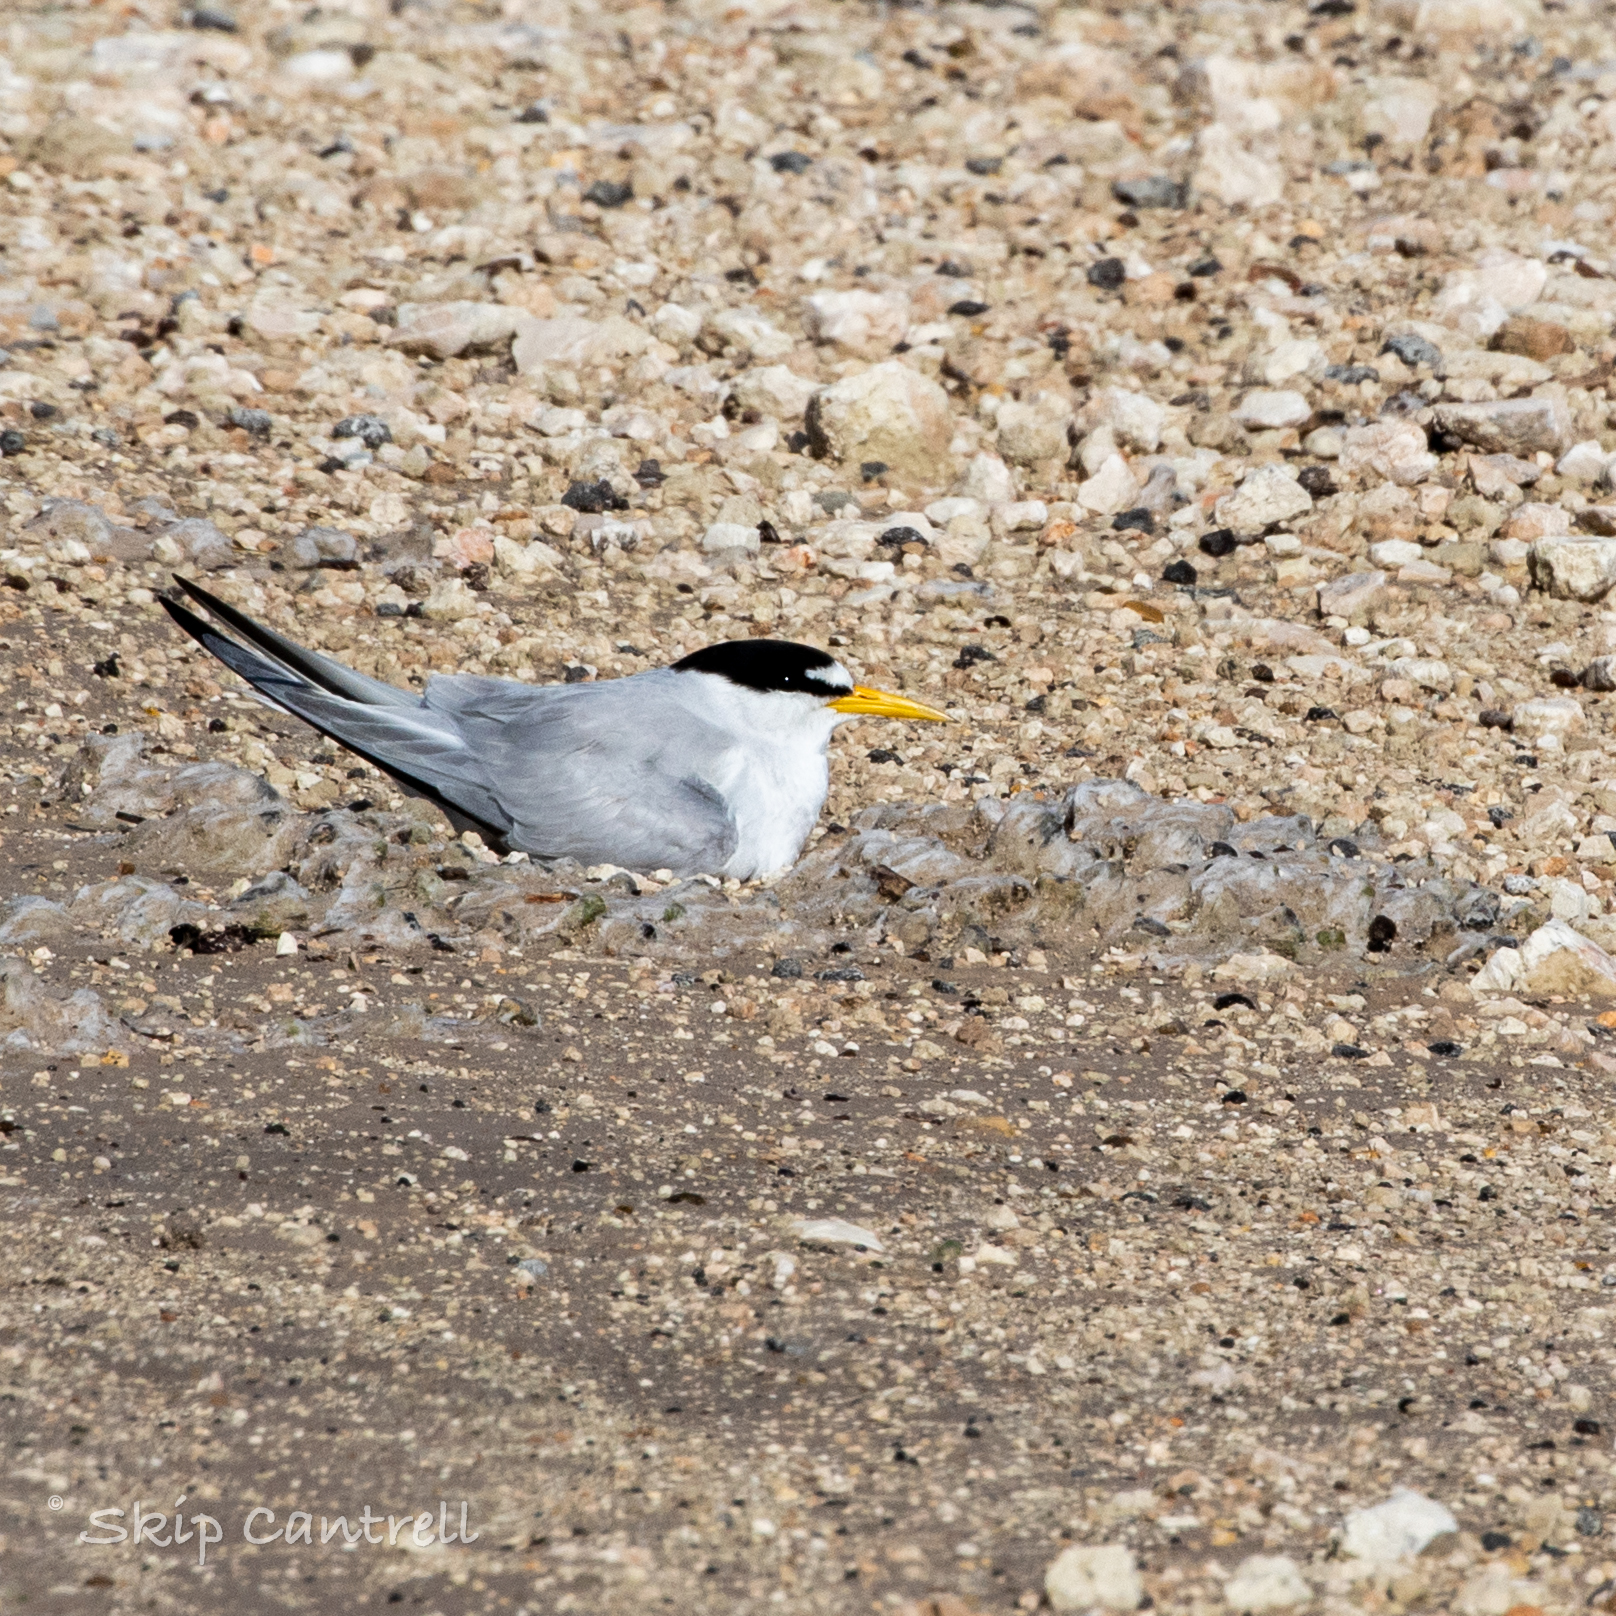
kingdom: Animalia
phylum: Chordata
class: Aves
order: Charadriiformes
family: Laridae
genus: Sternula
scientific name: Sternula antillarum
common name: Least tern
